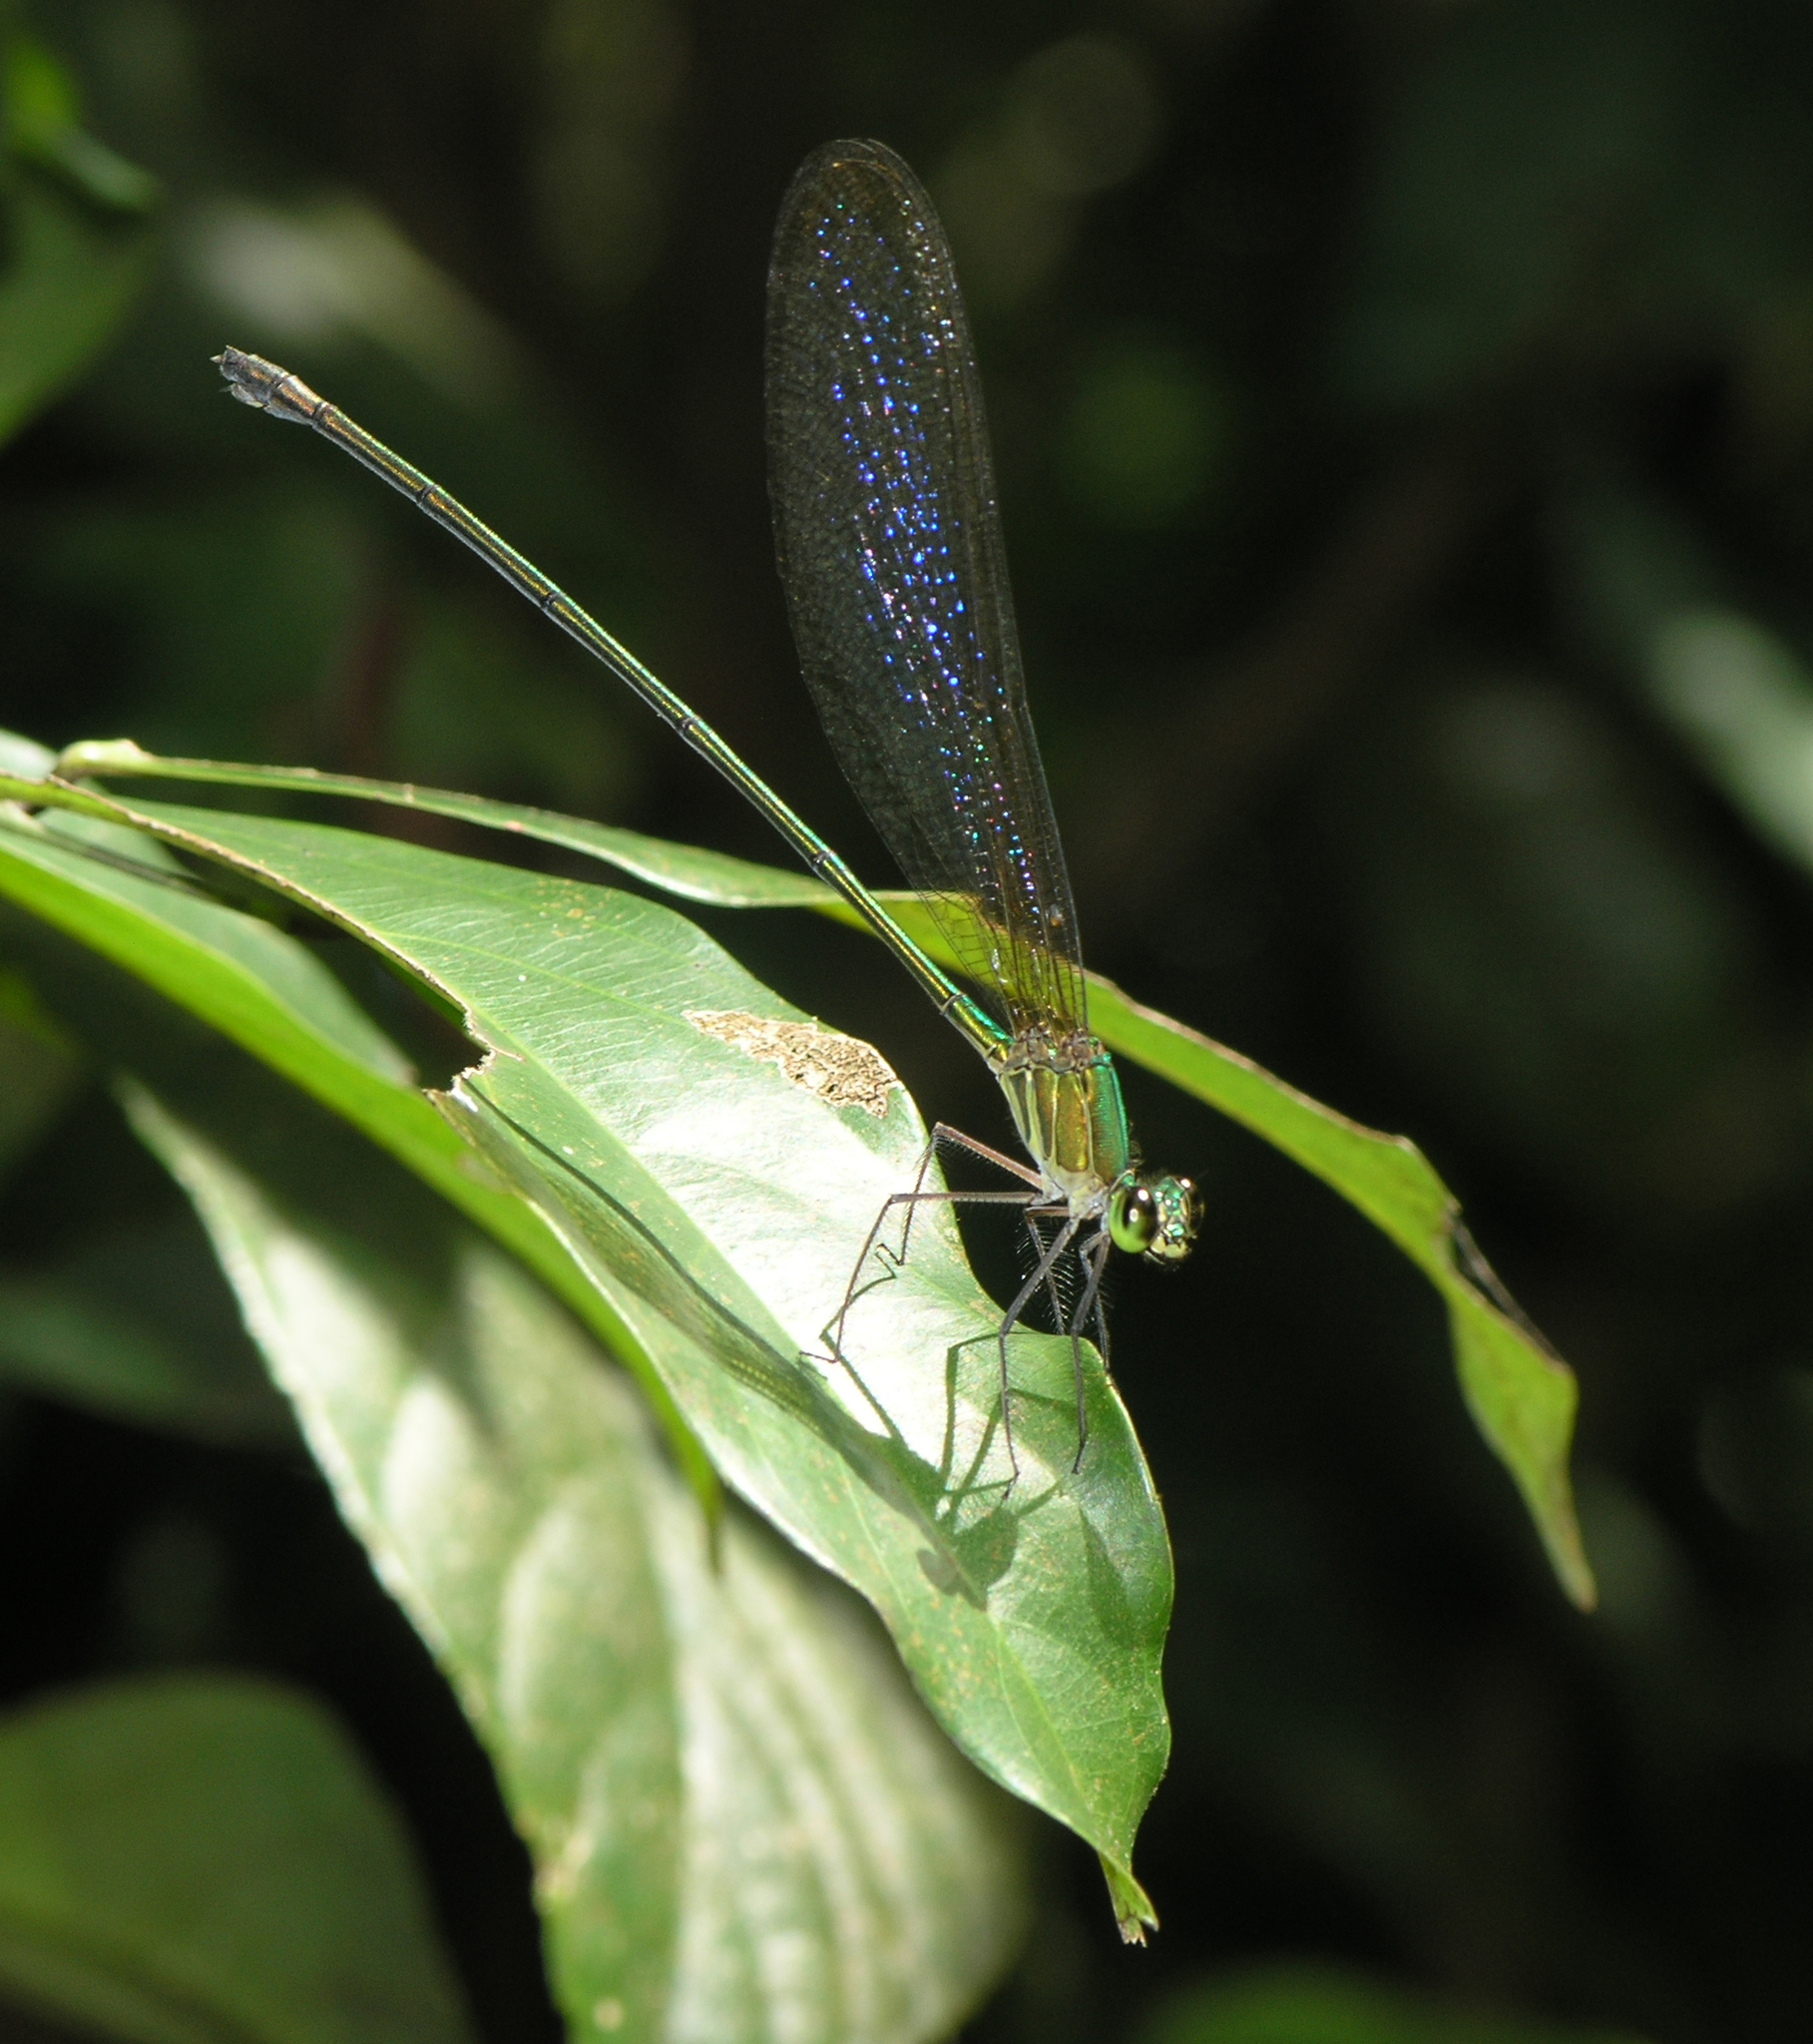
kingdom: Animalia
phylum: Arthropoda
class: Insecta
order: Odonata
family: Calopterygidae
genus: Vestalis
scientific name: Vestalis gracilis
